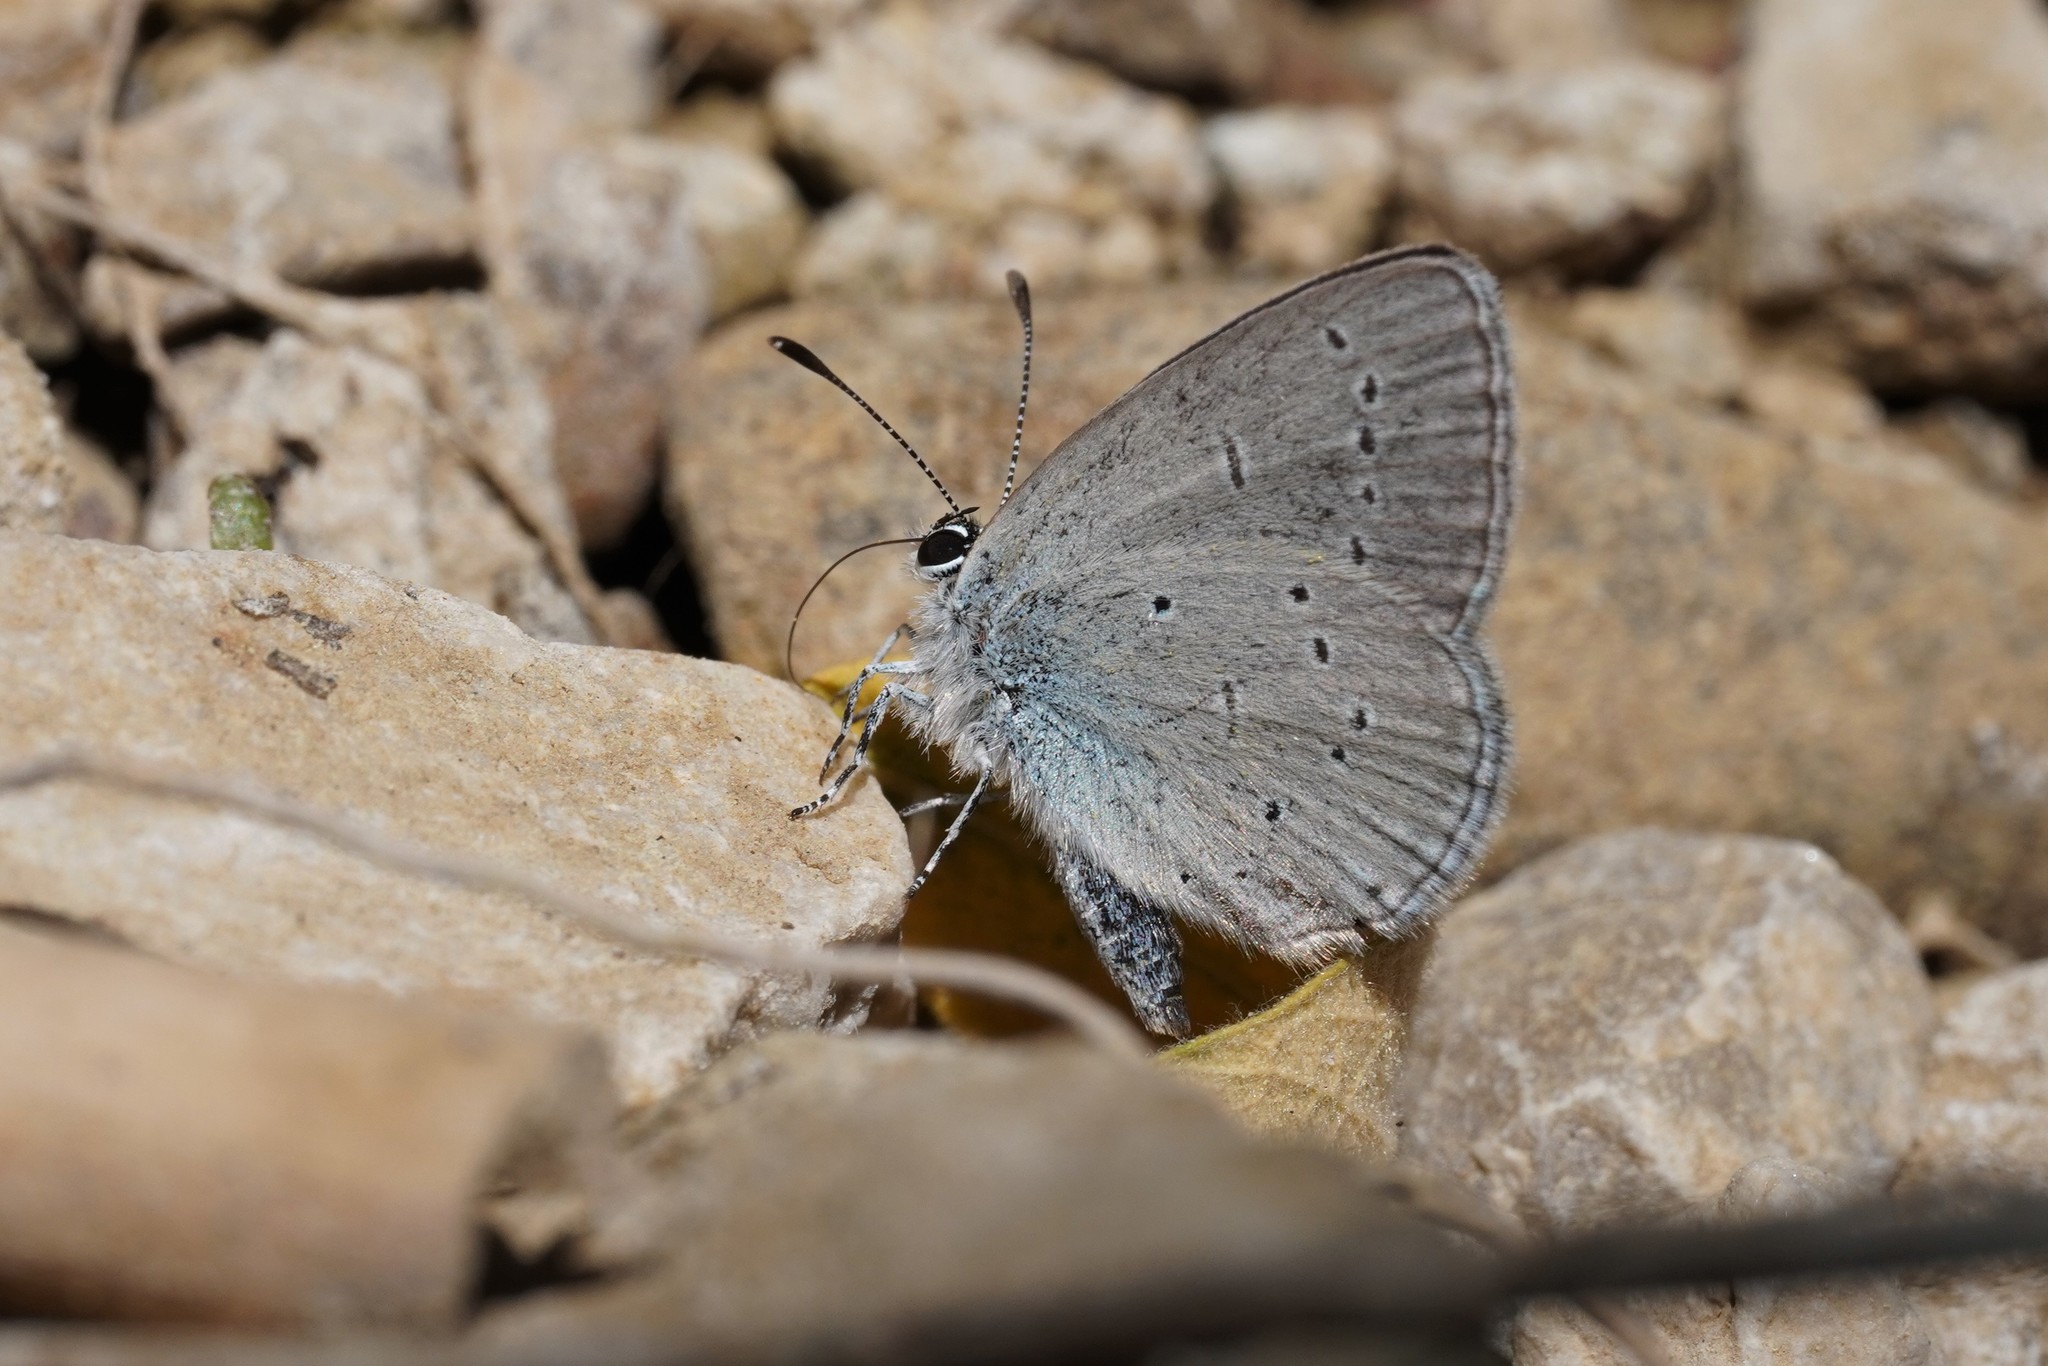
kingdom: Animalia
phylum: Arthropoda
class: Insecta
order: Lepidoptera
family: Lycaenidae
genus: Cupido
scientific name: Cupido lorquinii
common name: Lorquin’s blue
